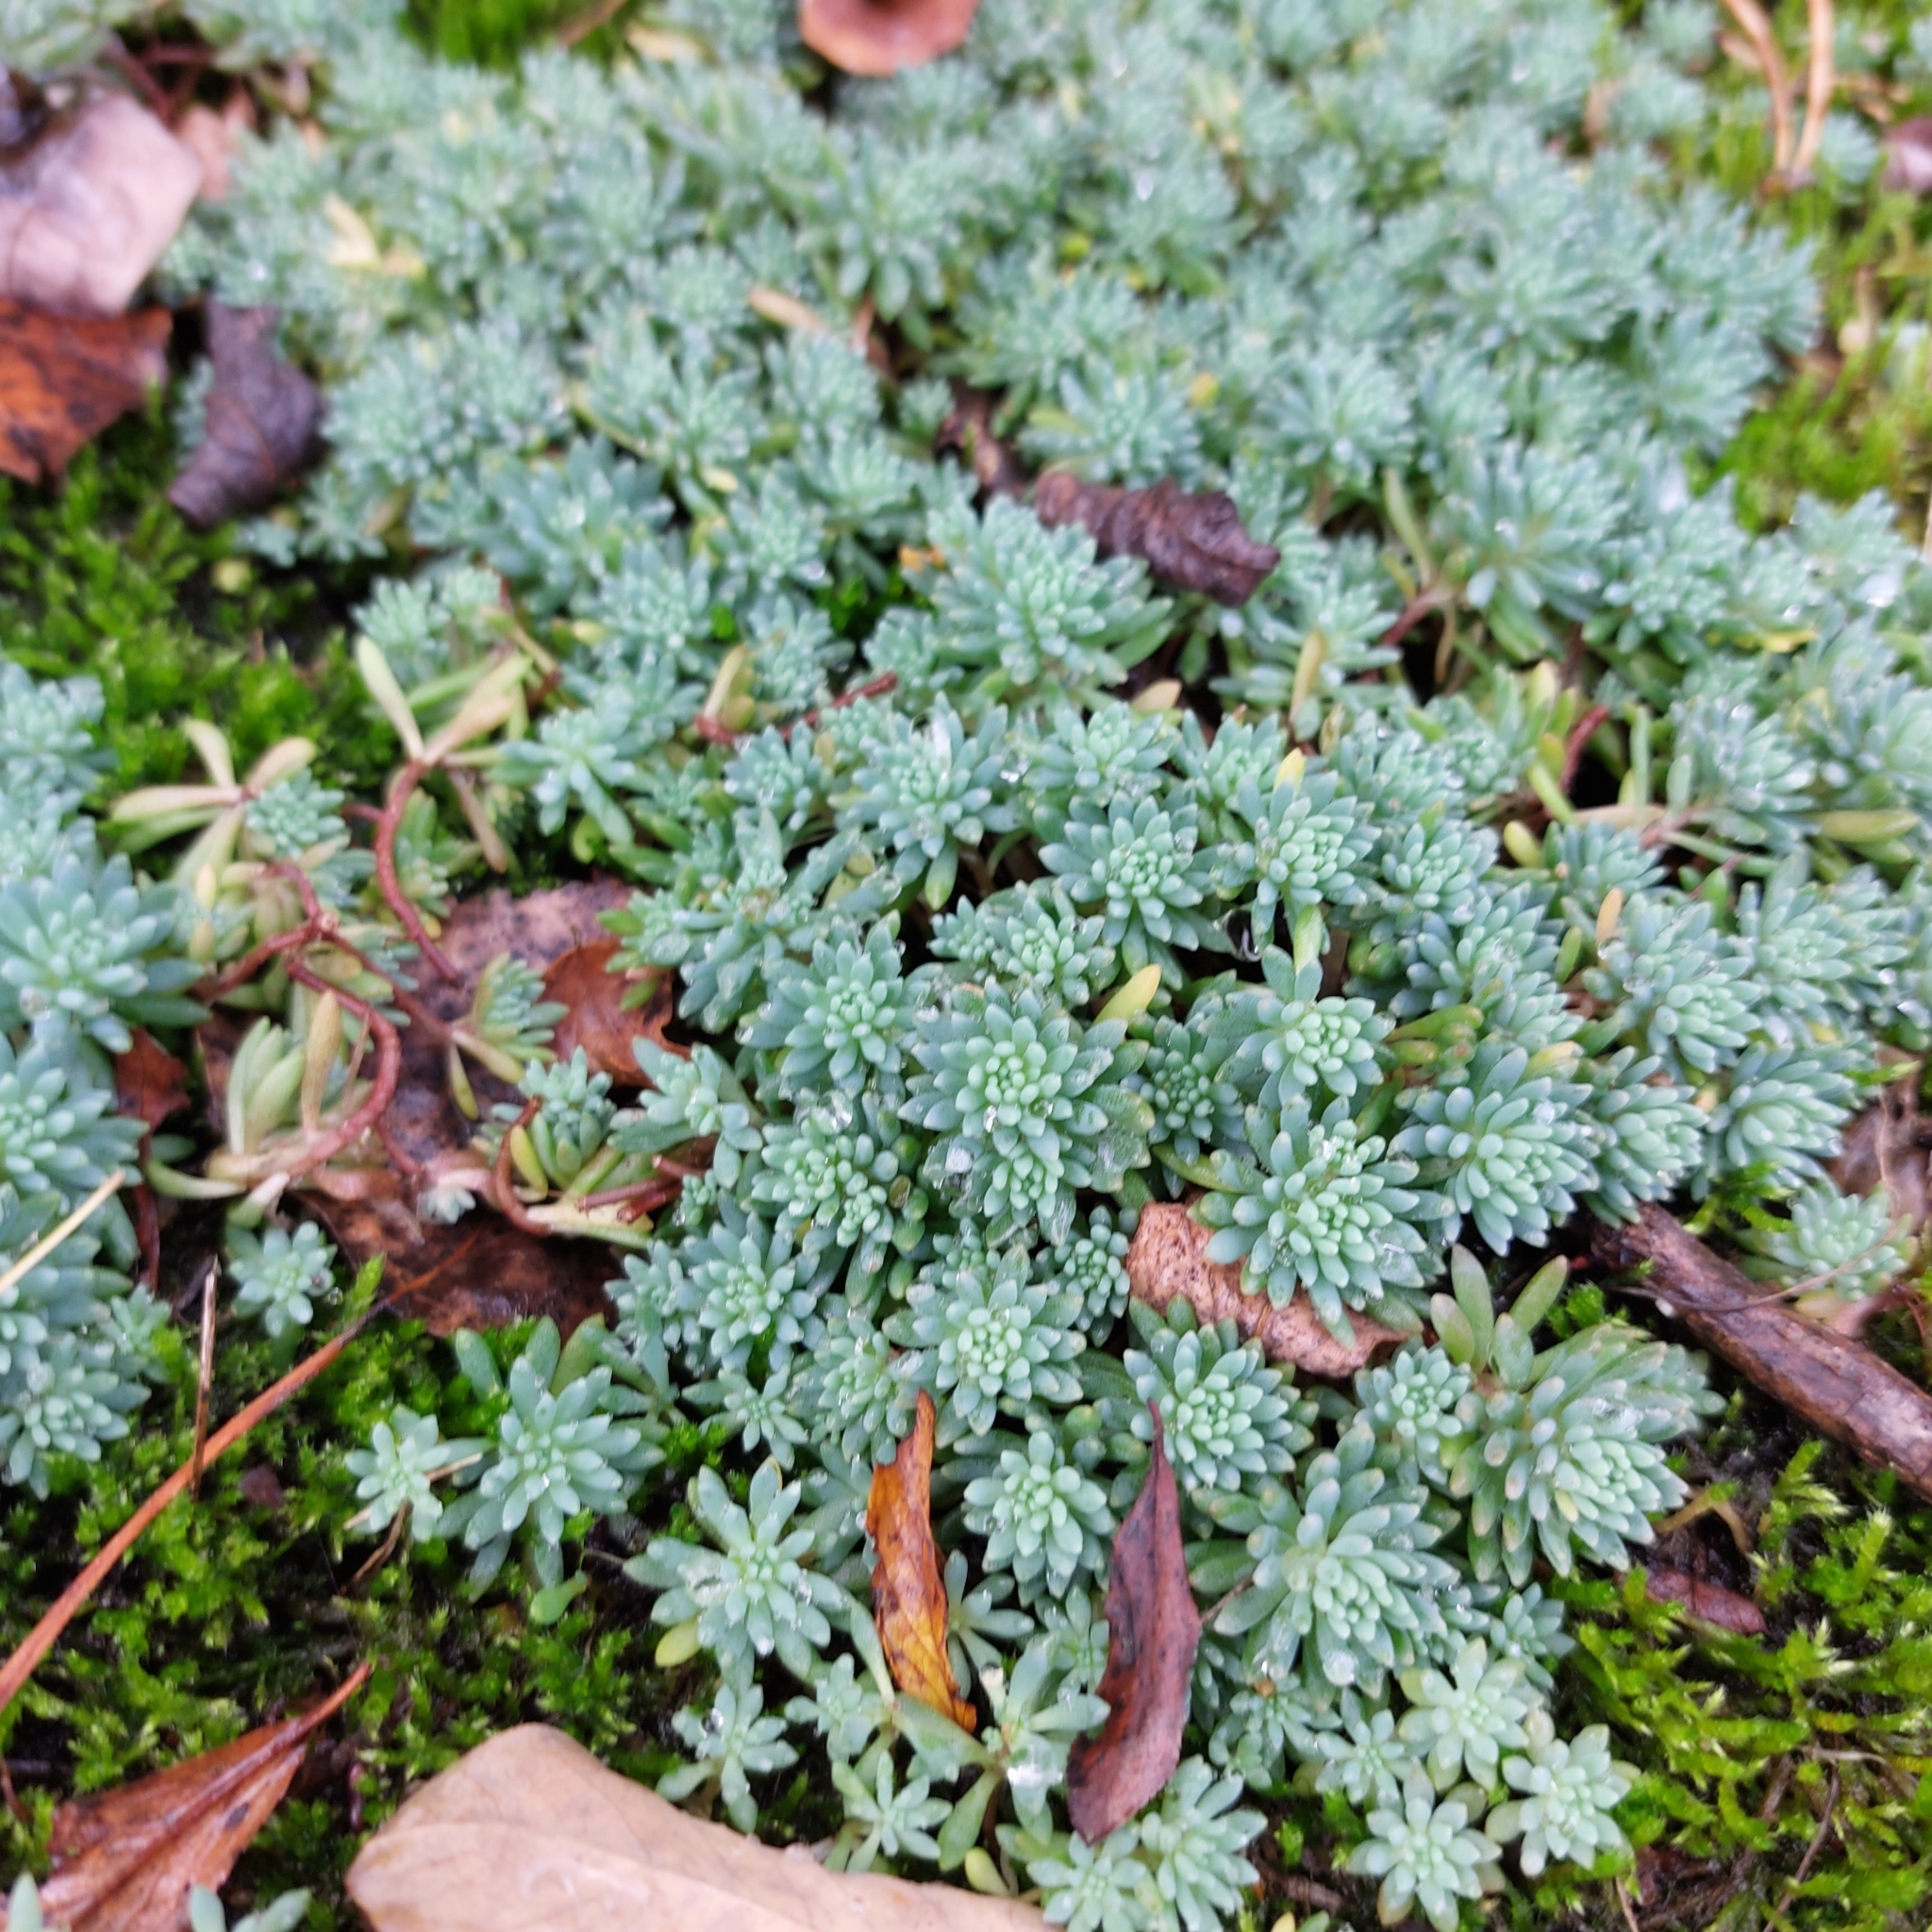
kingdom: Plantae
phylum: Tracheophyta
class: Magnoliopsida
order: Saxifragales
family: Crassulaceae
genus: Sedum
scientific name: Sedum hispanicum
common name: Spanish stonecrop
